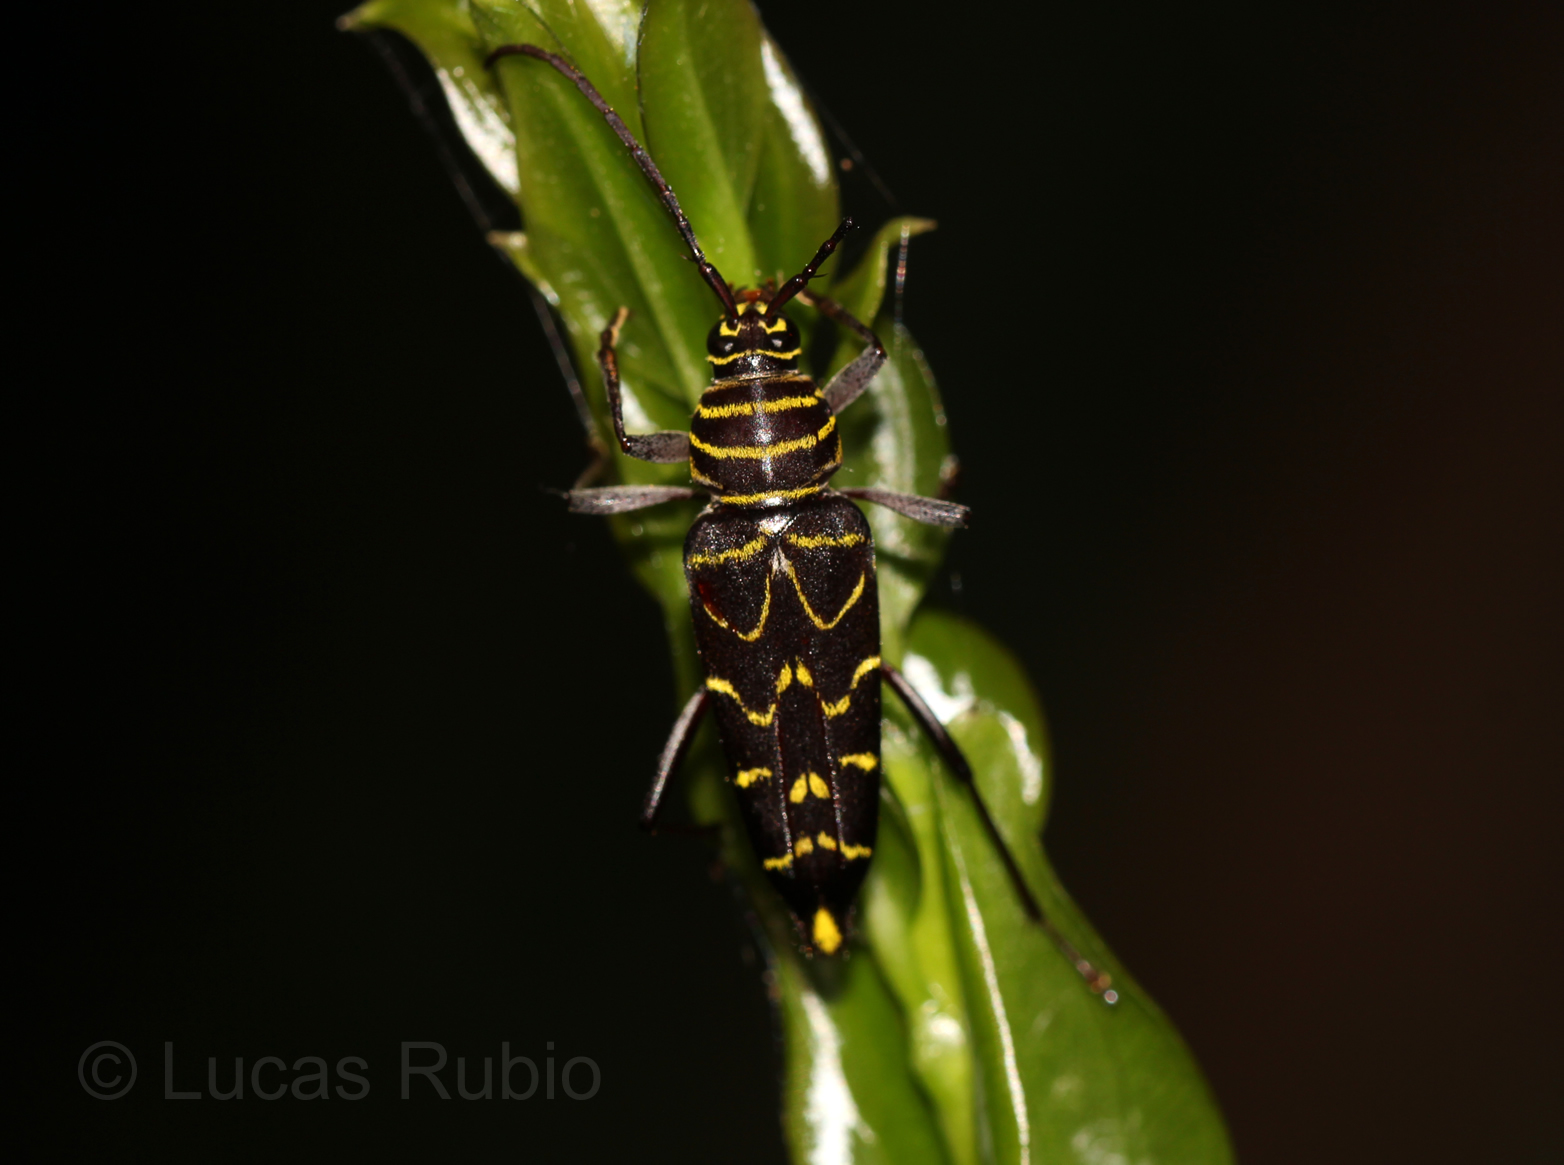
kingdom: Animalia
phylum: Arthropoda
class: Insecta
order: Coleoptera
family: Cerambycidae
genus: Megacyllene
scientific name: Megacyllene acuta
